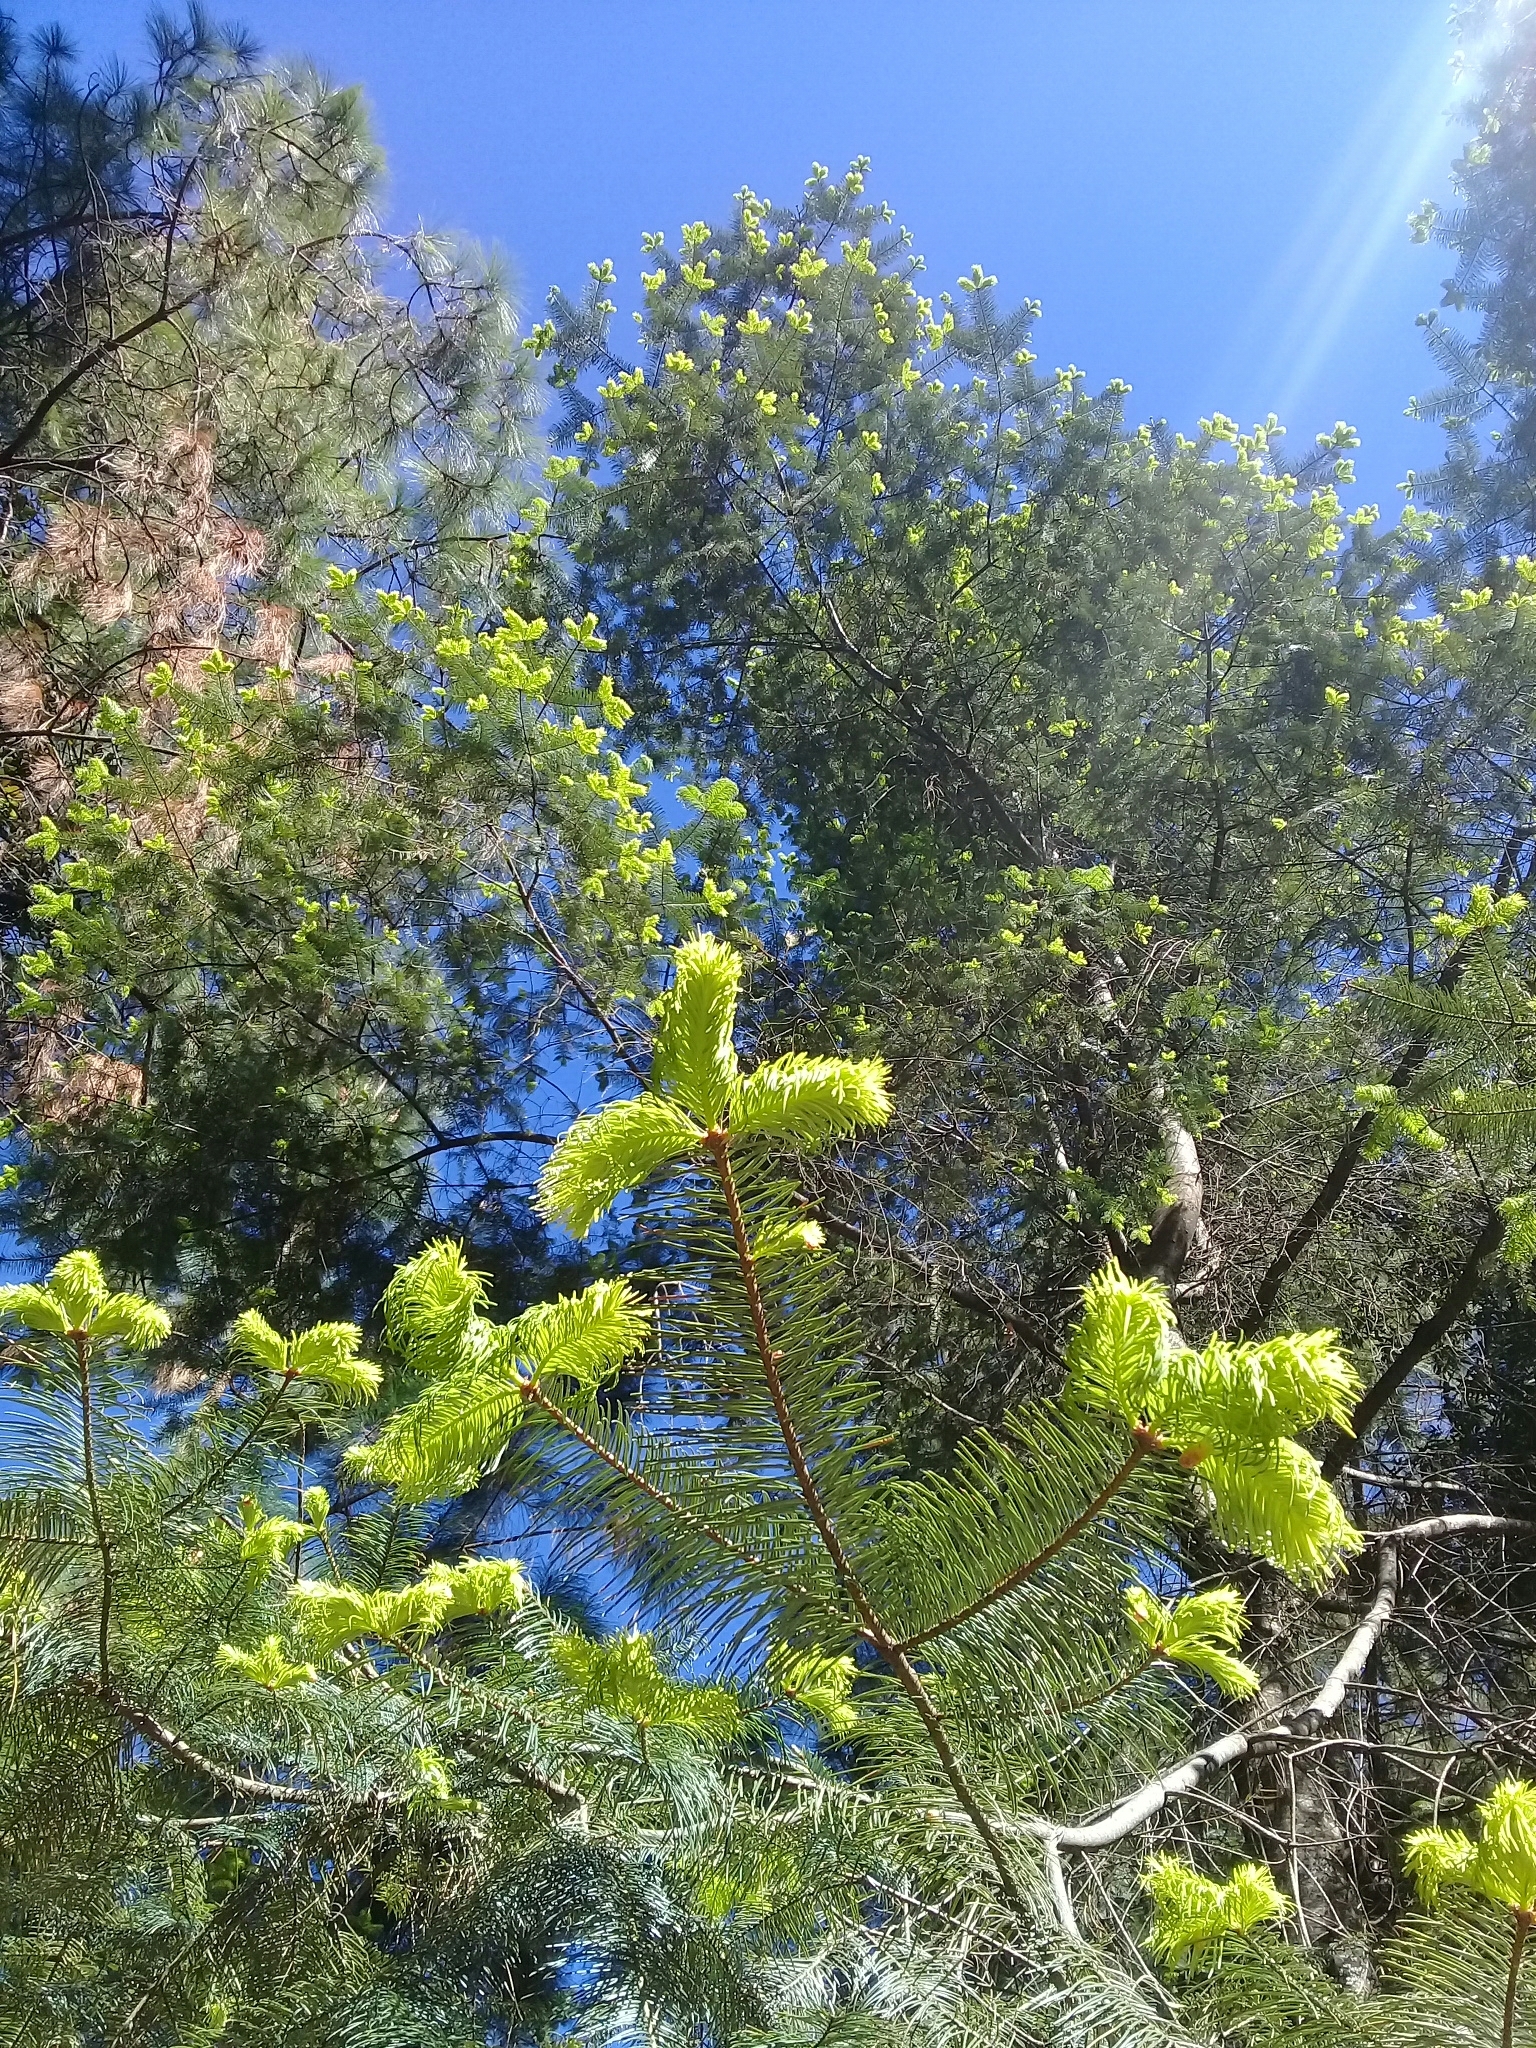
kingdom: Plantae
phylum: Tracheophyta
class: Pinopsida
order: Pinales
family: Pinaceae
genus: Abies
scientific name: Abies religiosa
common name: Sacred fir
